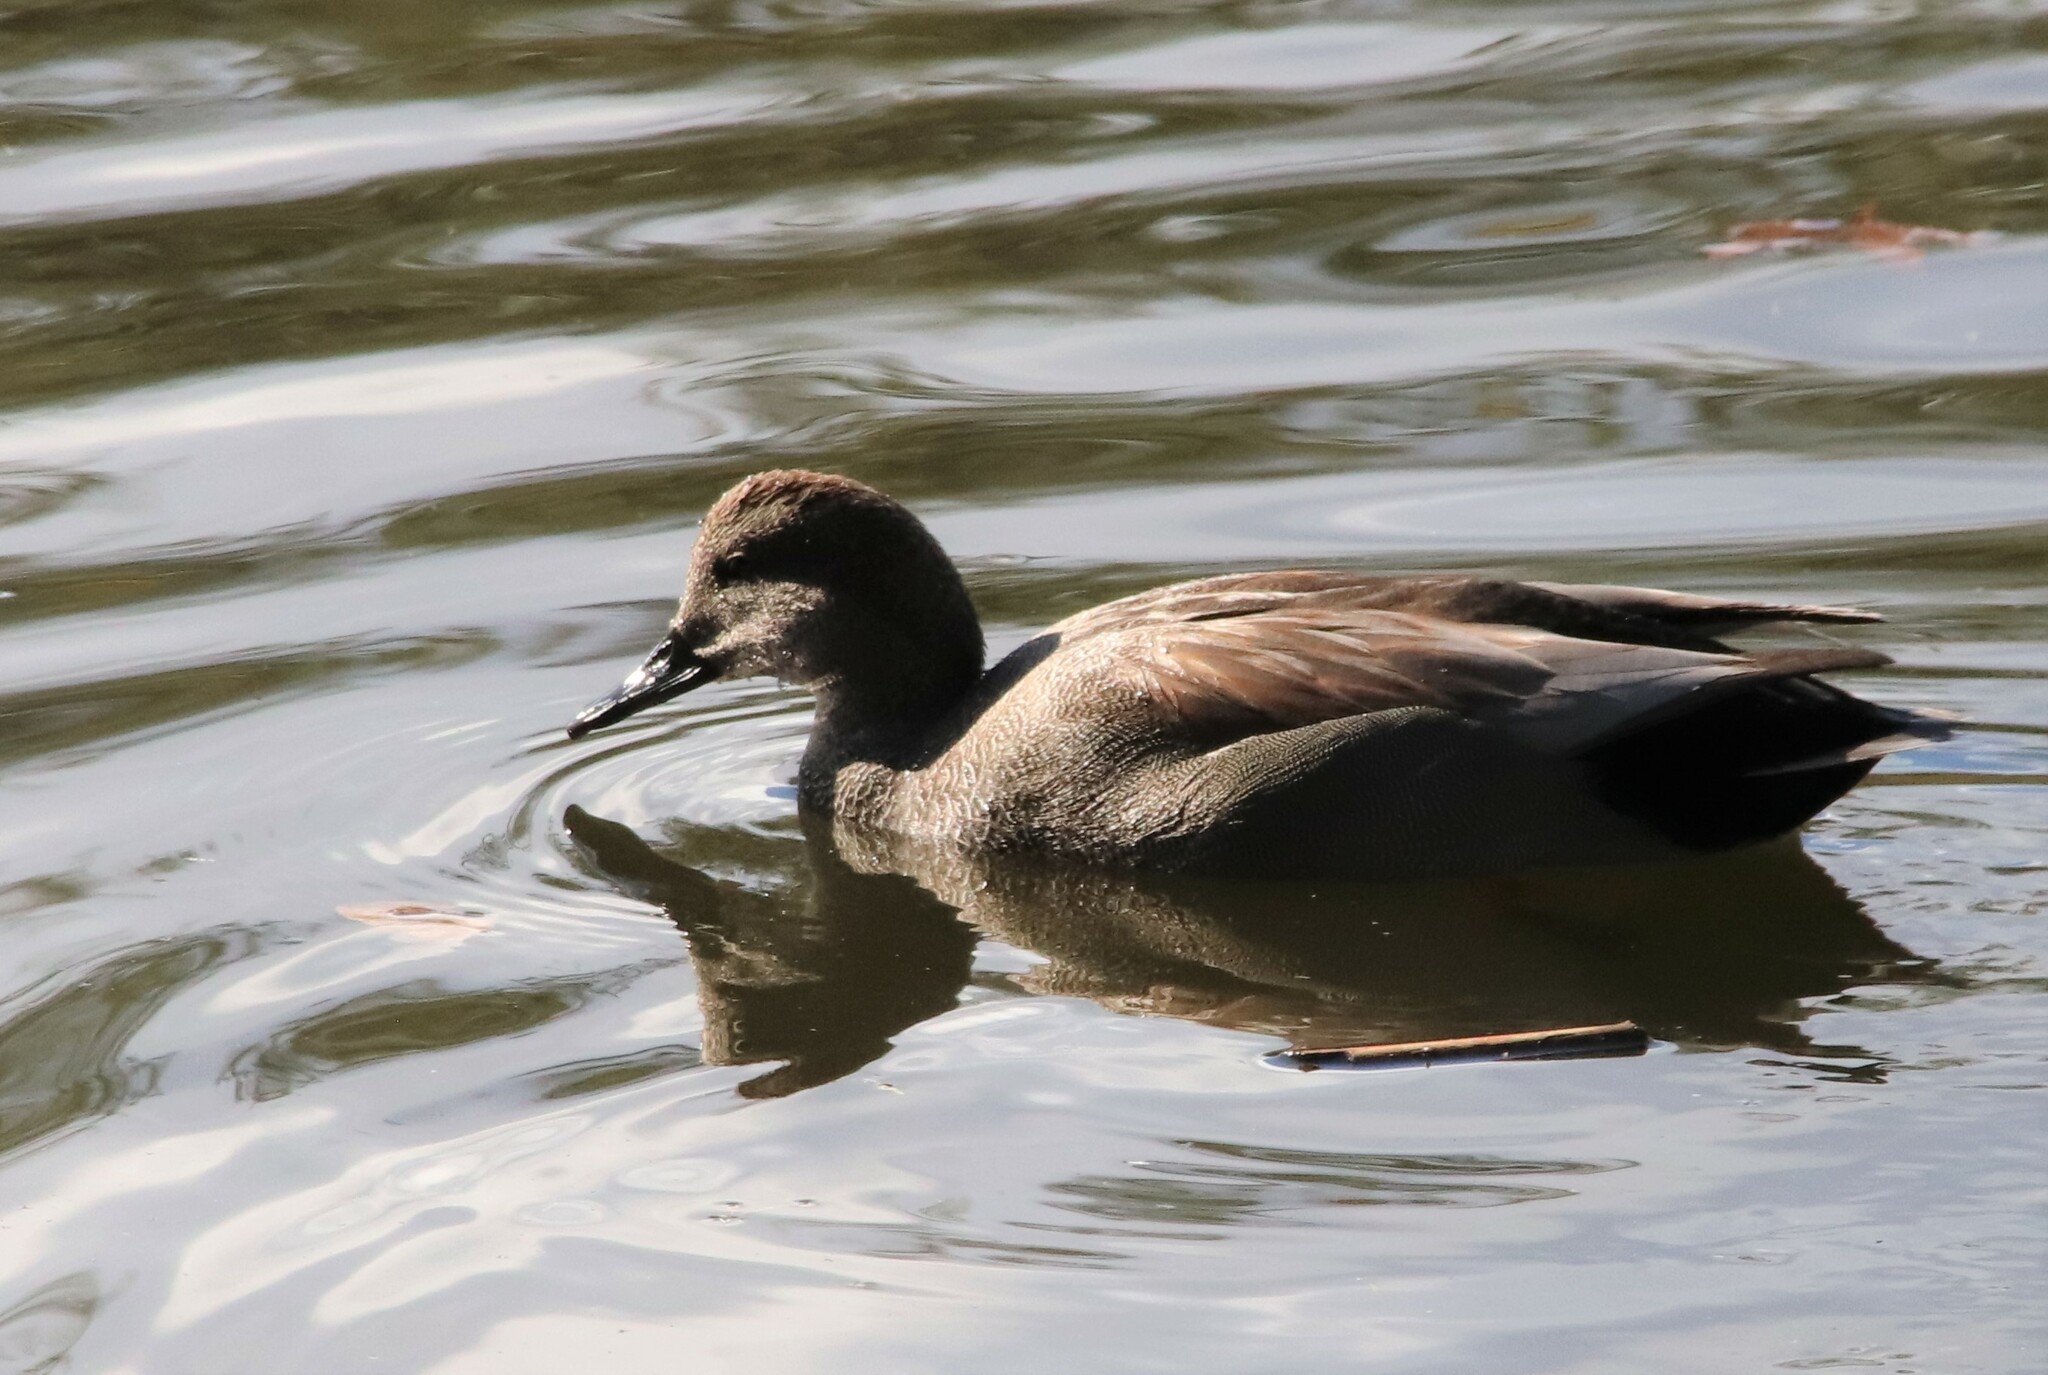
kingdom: Animalia
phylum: Chordata
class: Aves
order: Anseriformes
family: Anatidae
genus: Mareca
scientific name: Mareca strepera
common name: Gadwall
